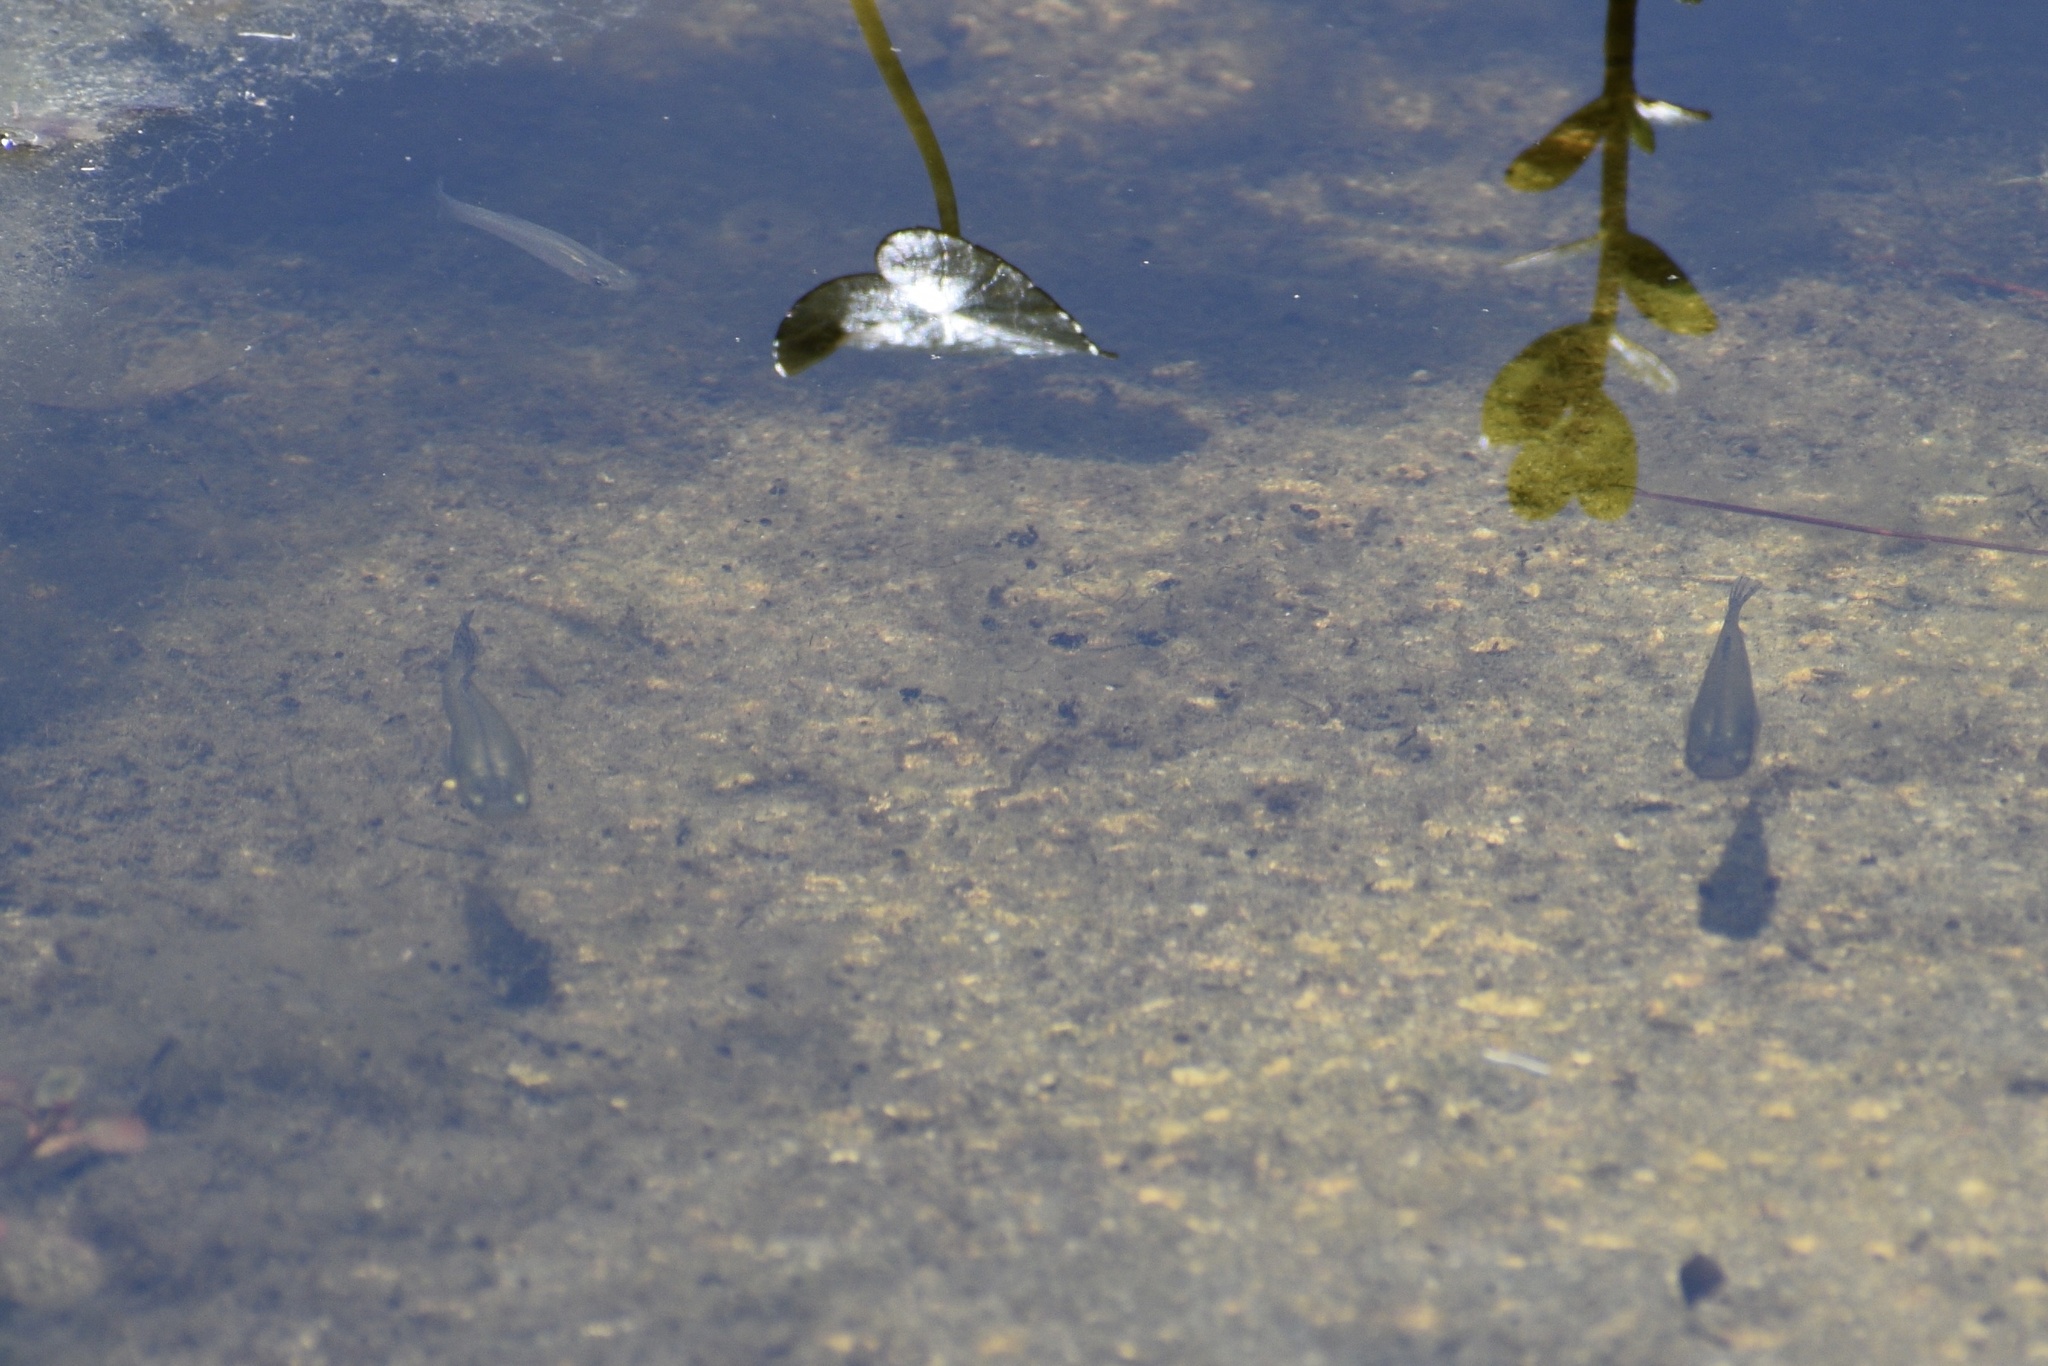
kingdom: Animalia
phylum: Chordata
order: Cyprinodontiformes
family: Poeciliidae
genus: Gambusia
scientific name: Gambusia holbrooki
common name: Eastern mosquitofish
